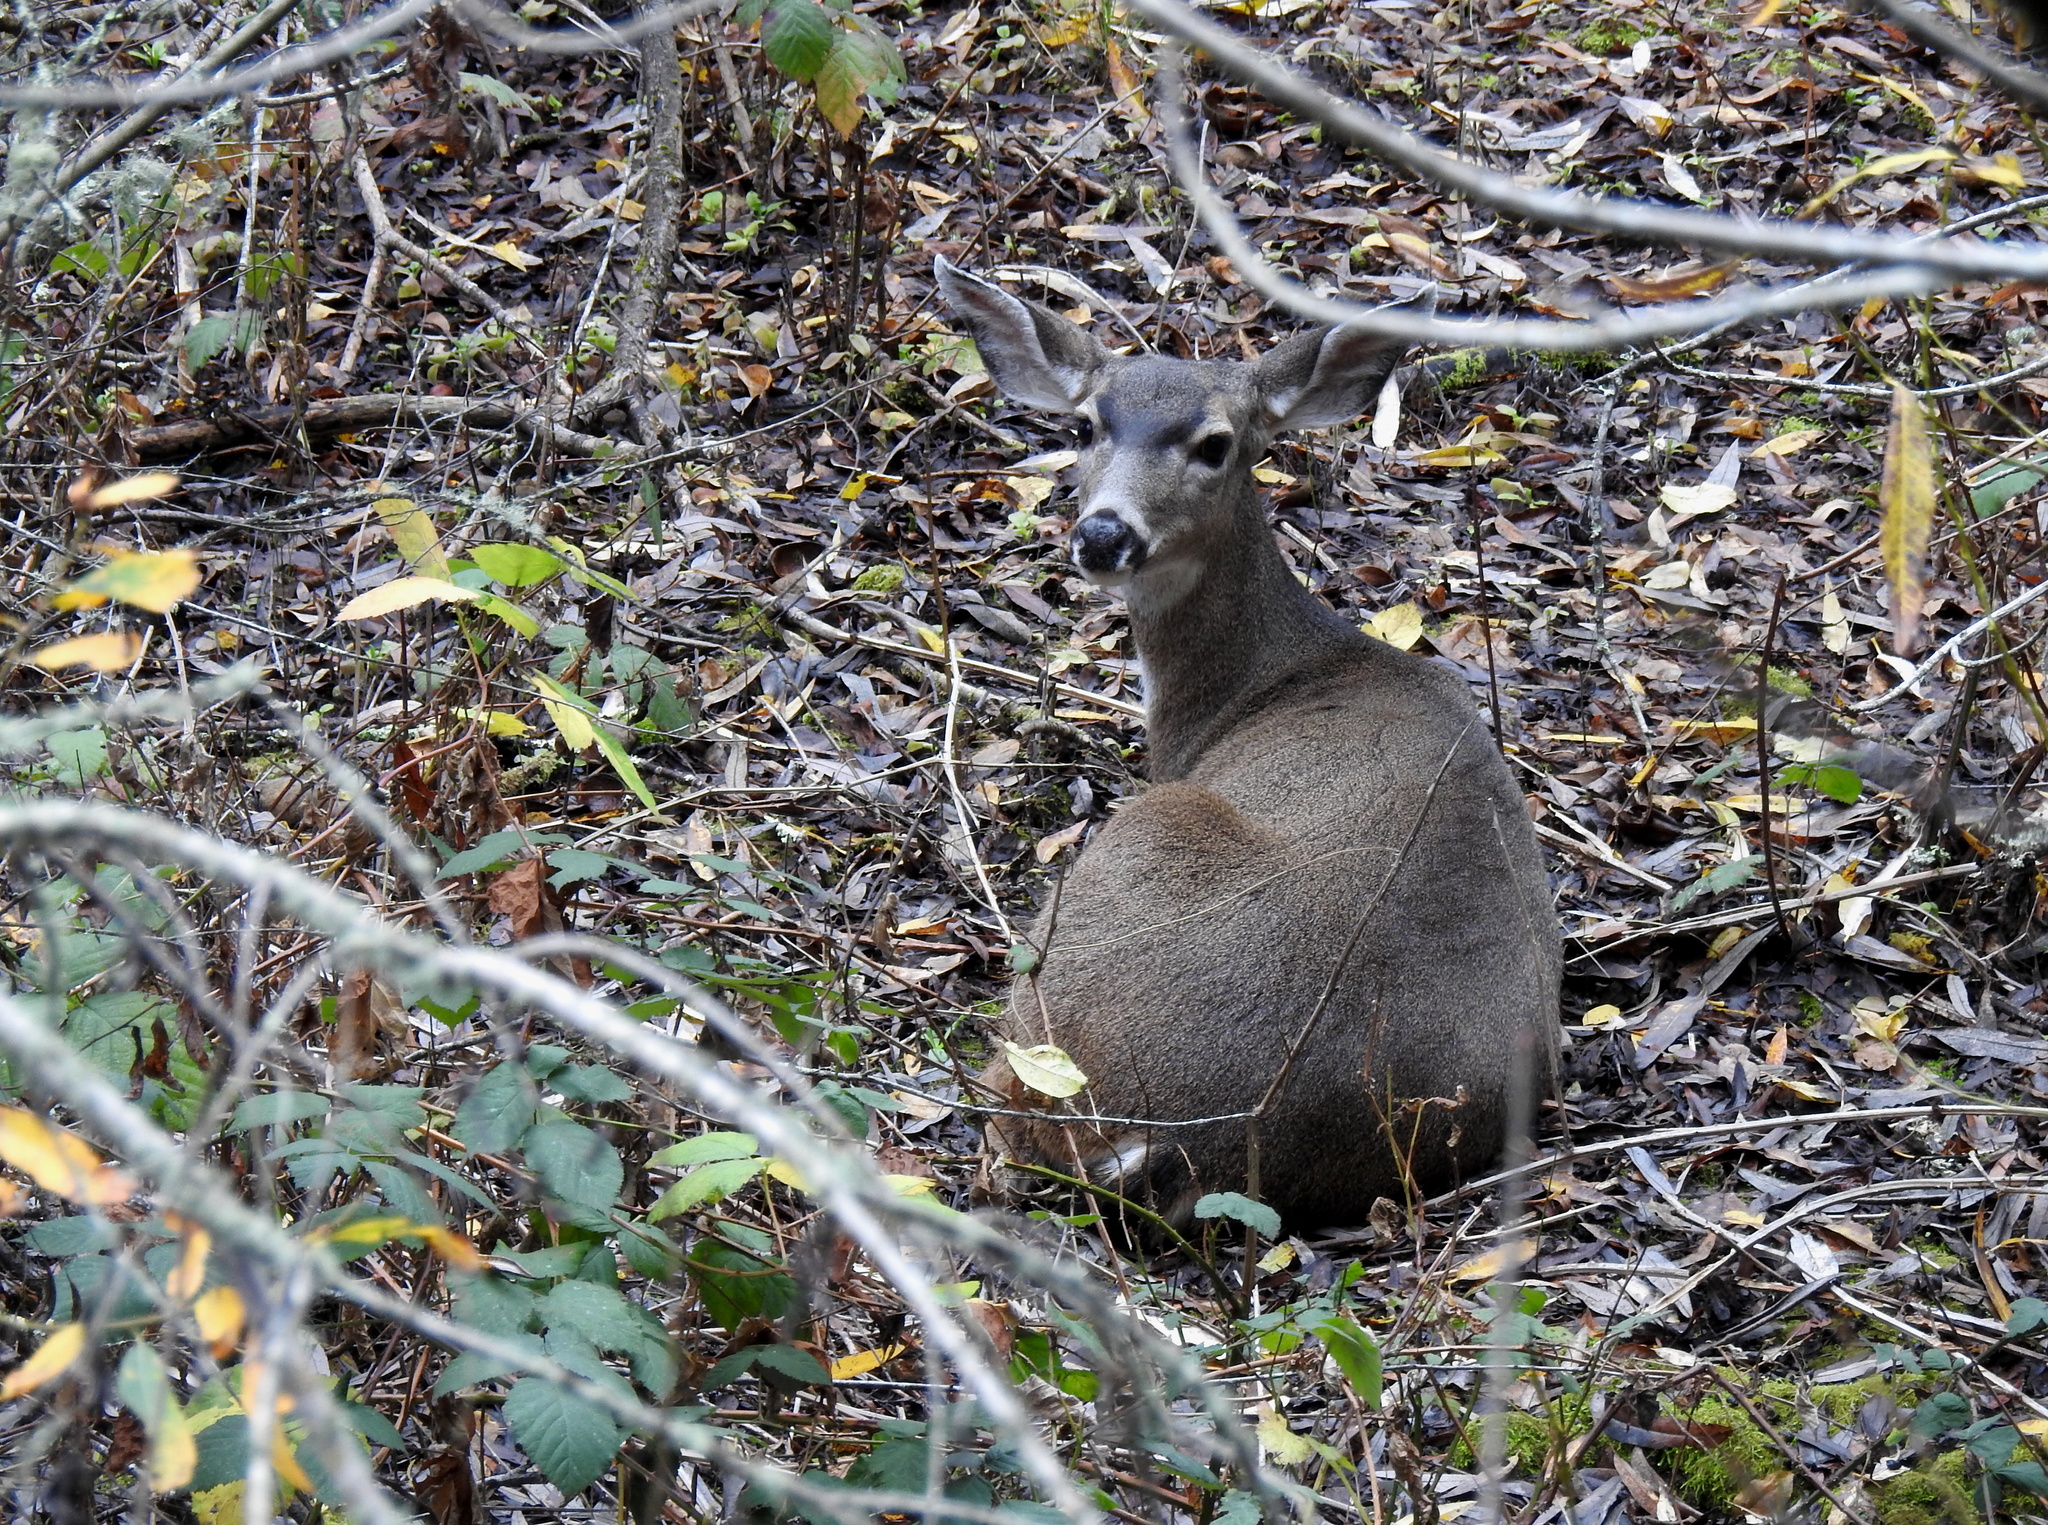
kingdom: Animalia
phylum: Chordata
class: Mammalia
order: Artiodactyla
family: Cervidae
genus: Odocoileus
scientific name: Odocoileus hemionus
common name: Mule deer
